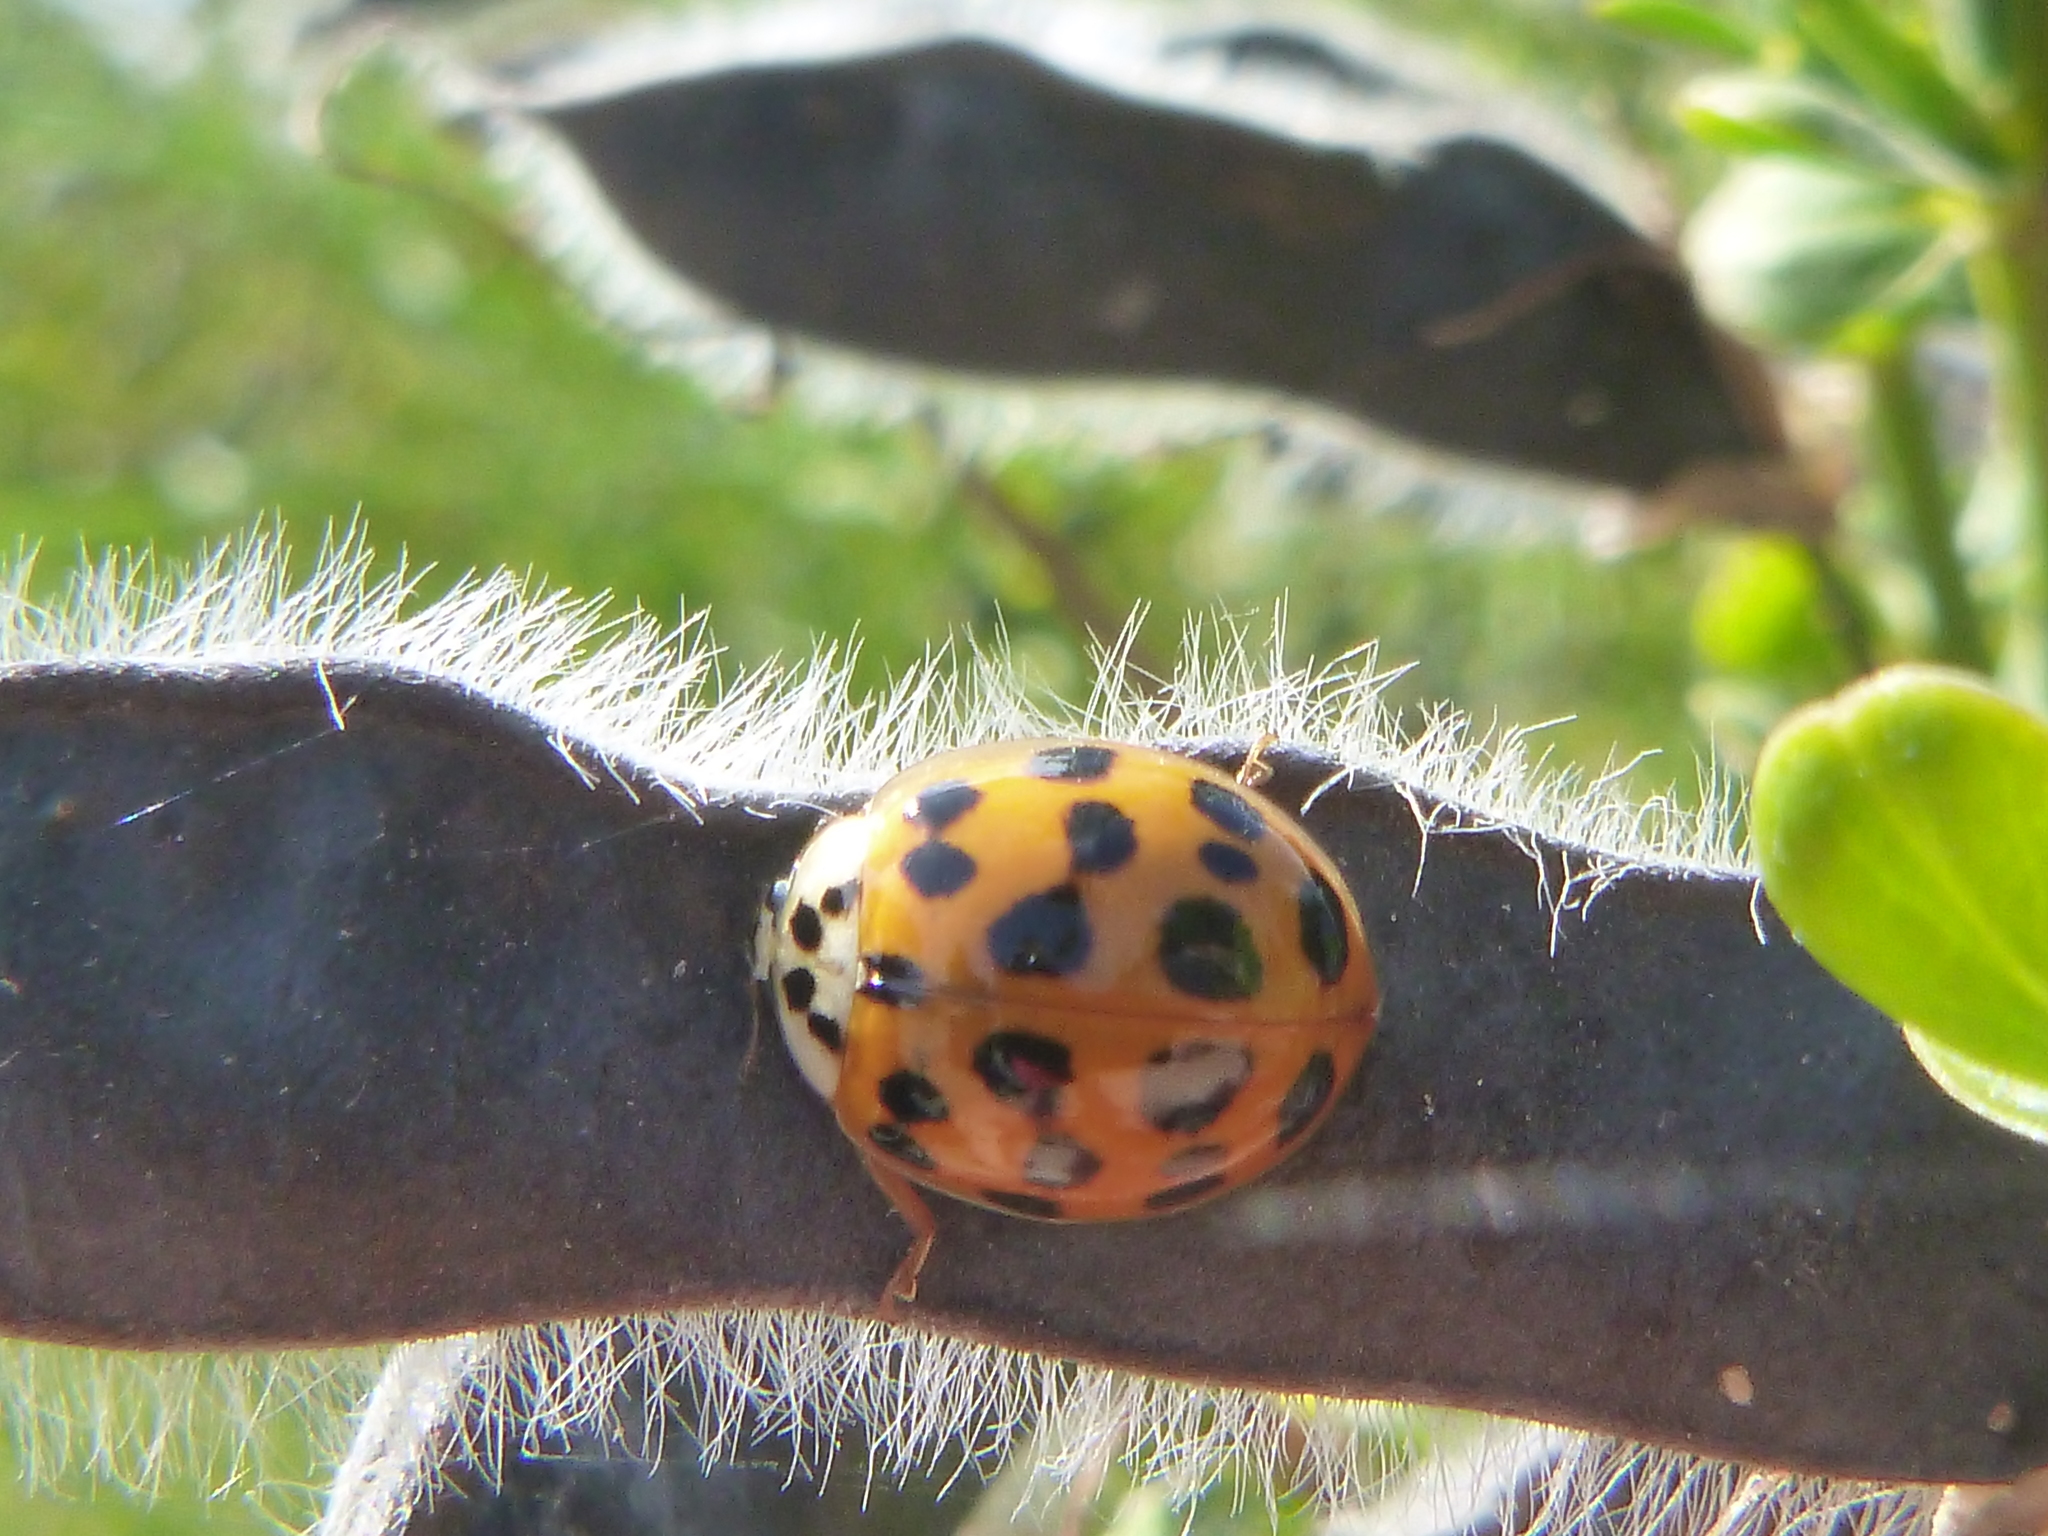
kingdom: Animalia
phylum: Arthropoda
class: Insecta
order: Coleoptera
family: Coccinellidae
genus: Harmonia
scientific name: Harmonia axyridis
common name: Harlequin ladybird
